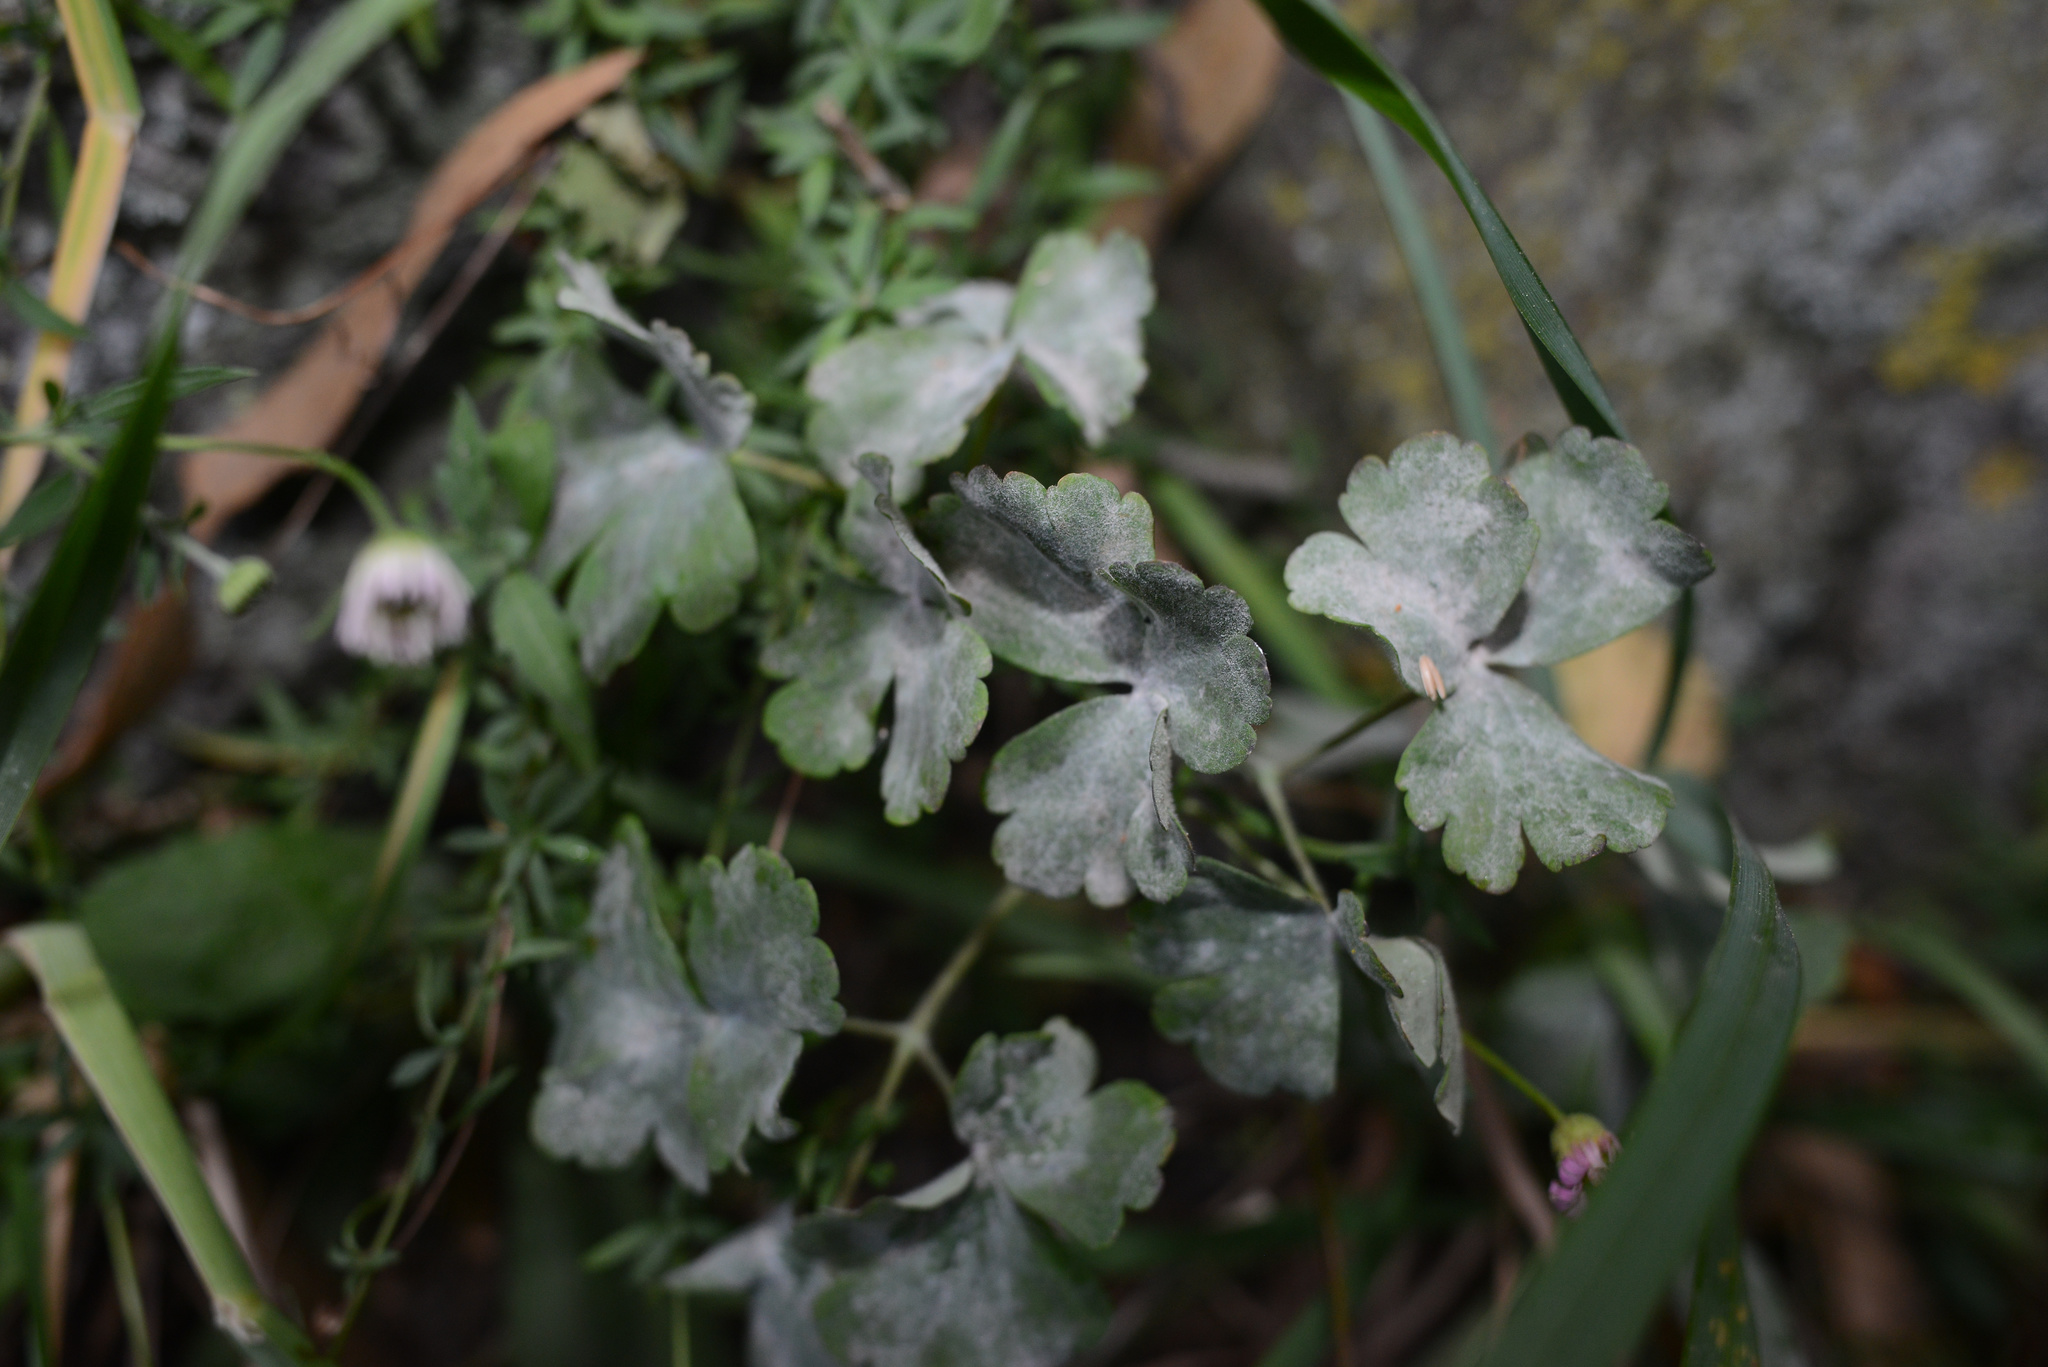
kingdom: Fungi
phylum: Ascomycota
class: Leotiomycetes
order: Helotiales
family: Erysiphaceae
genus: Erysiphe
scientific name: Erysiphe aquilegiae
